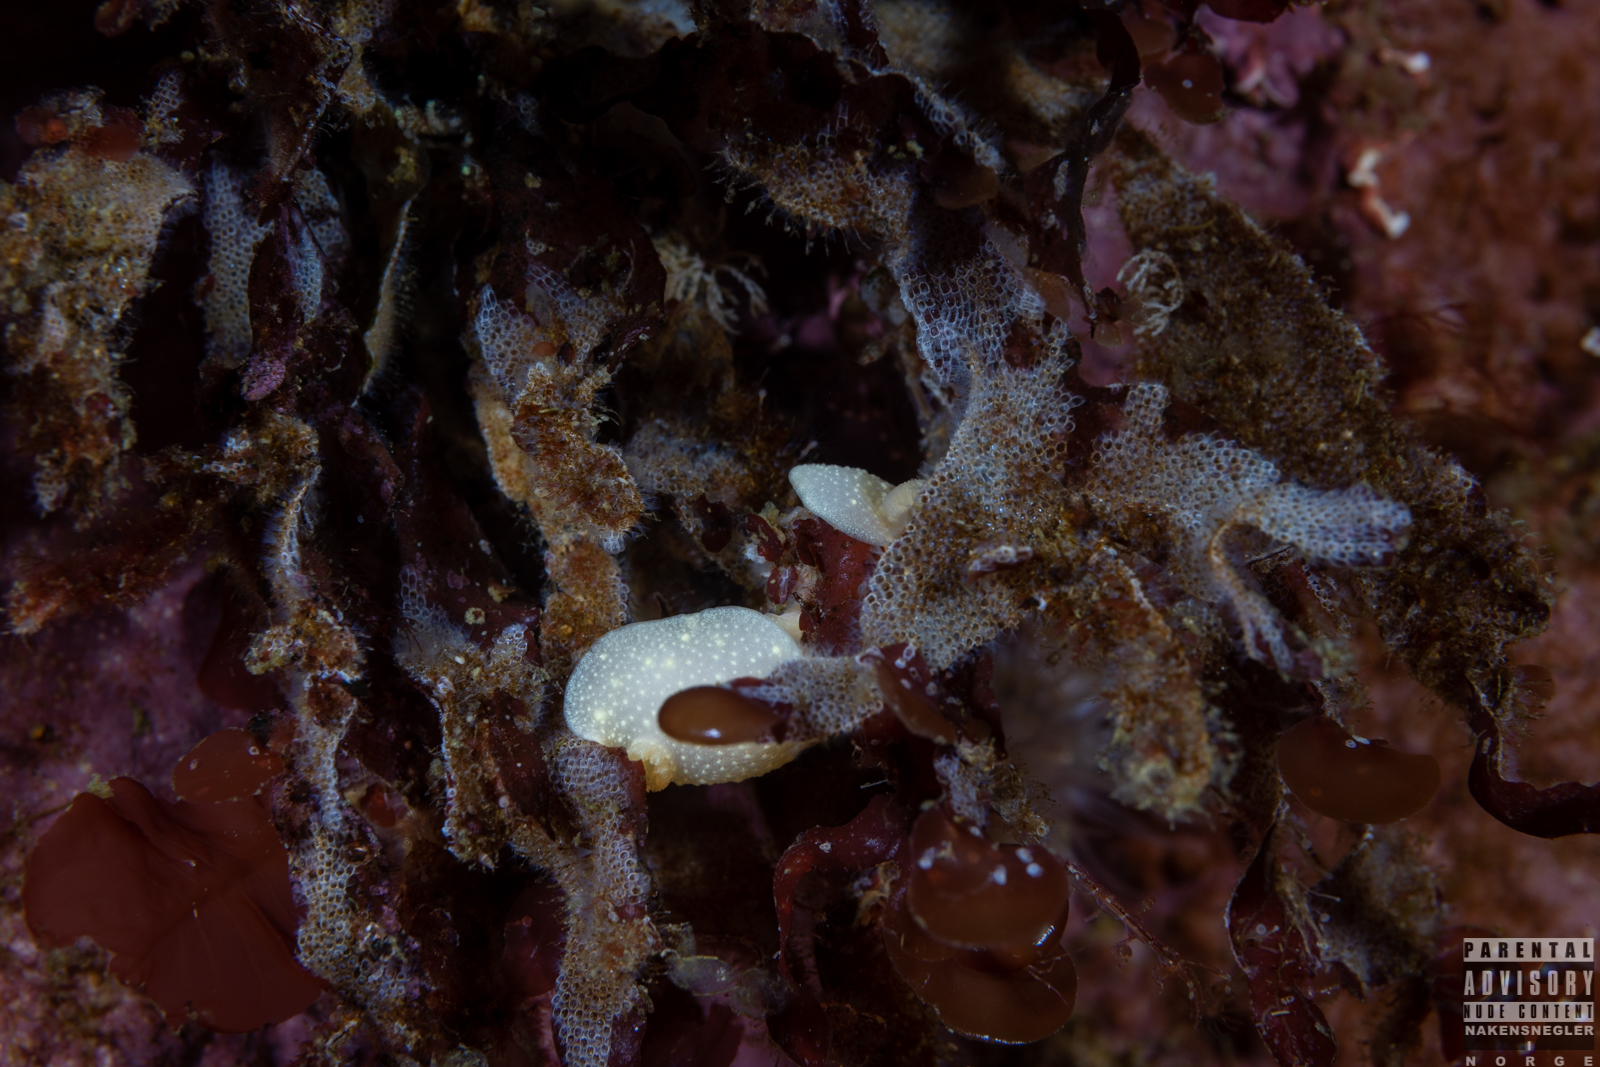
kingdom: Animalia
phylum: Mollusca
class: Gastropoda
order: Nudibranchia
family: Cadlinidae
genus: Cadlina
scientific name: Cadlina laevis
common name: White atlantic cadlina
